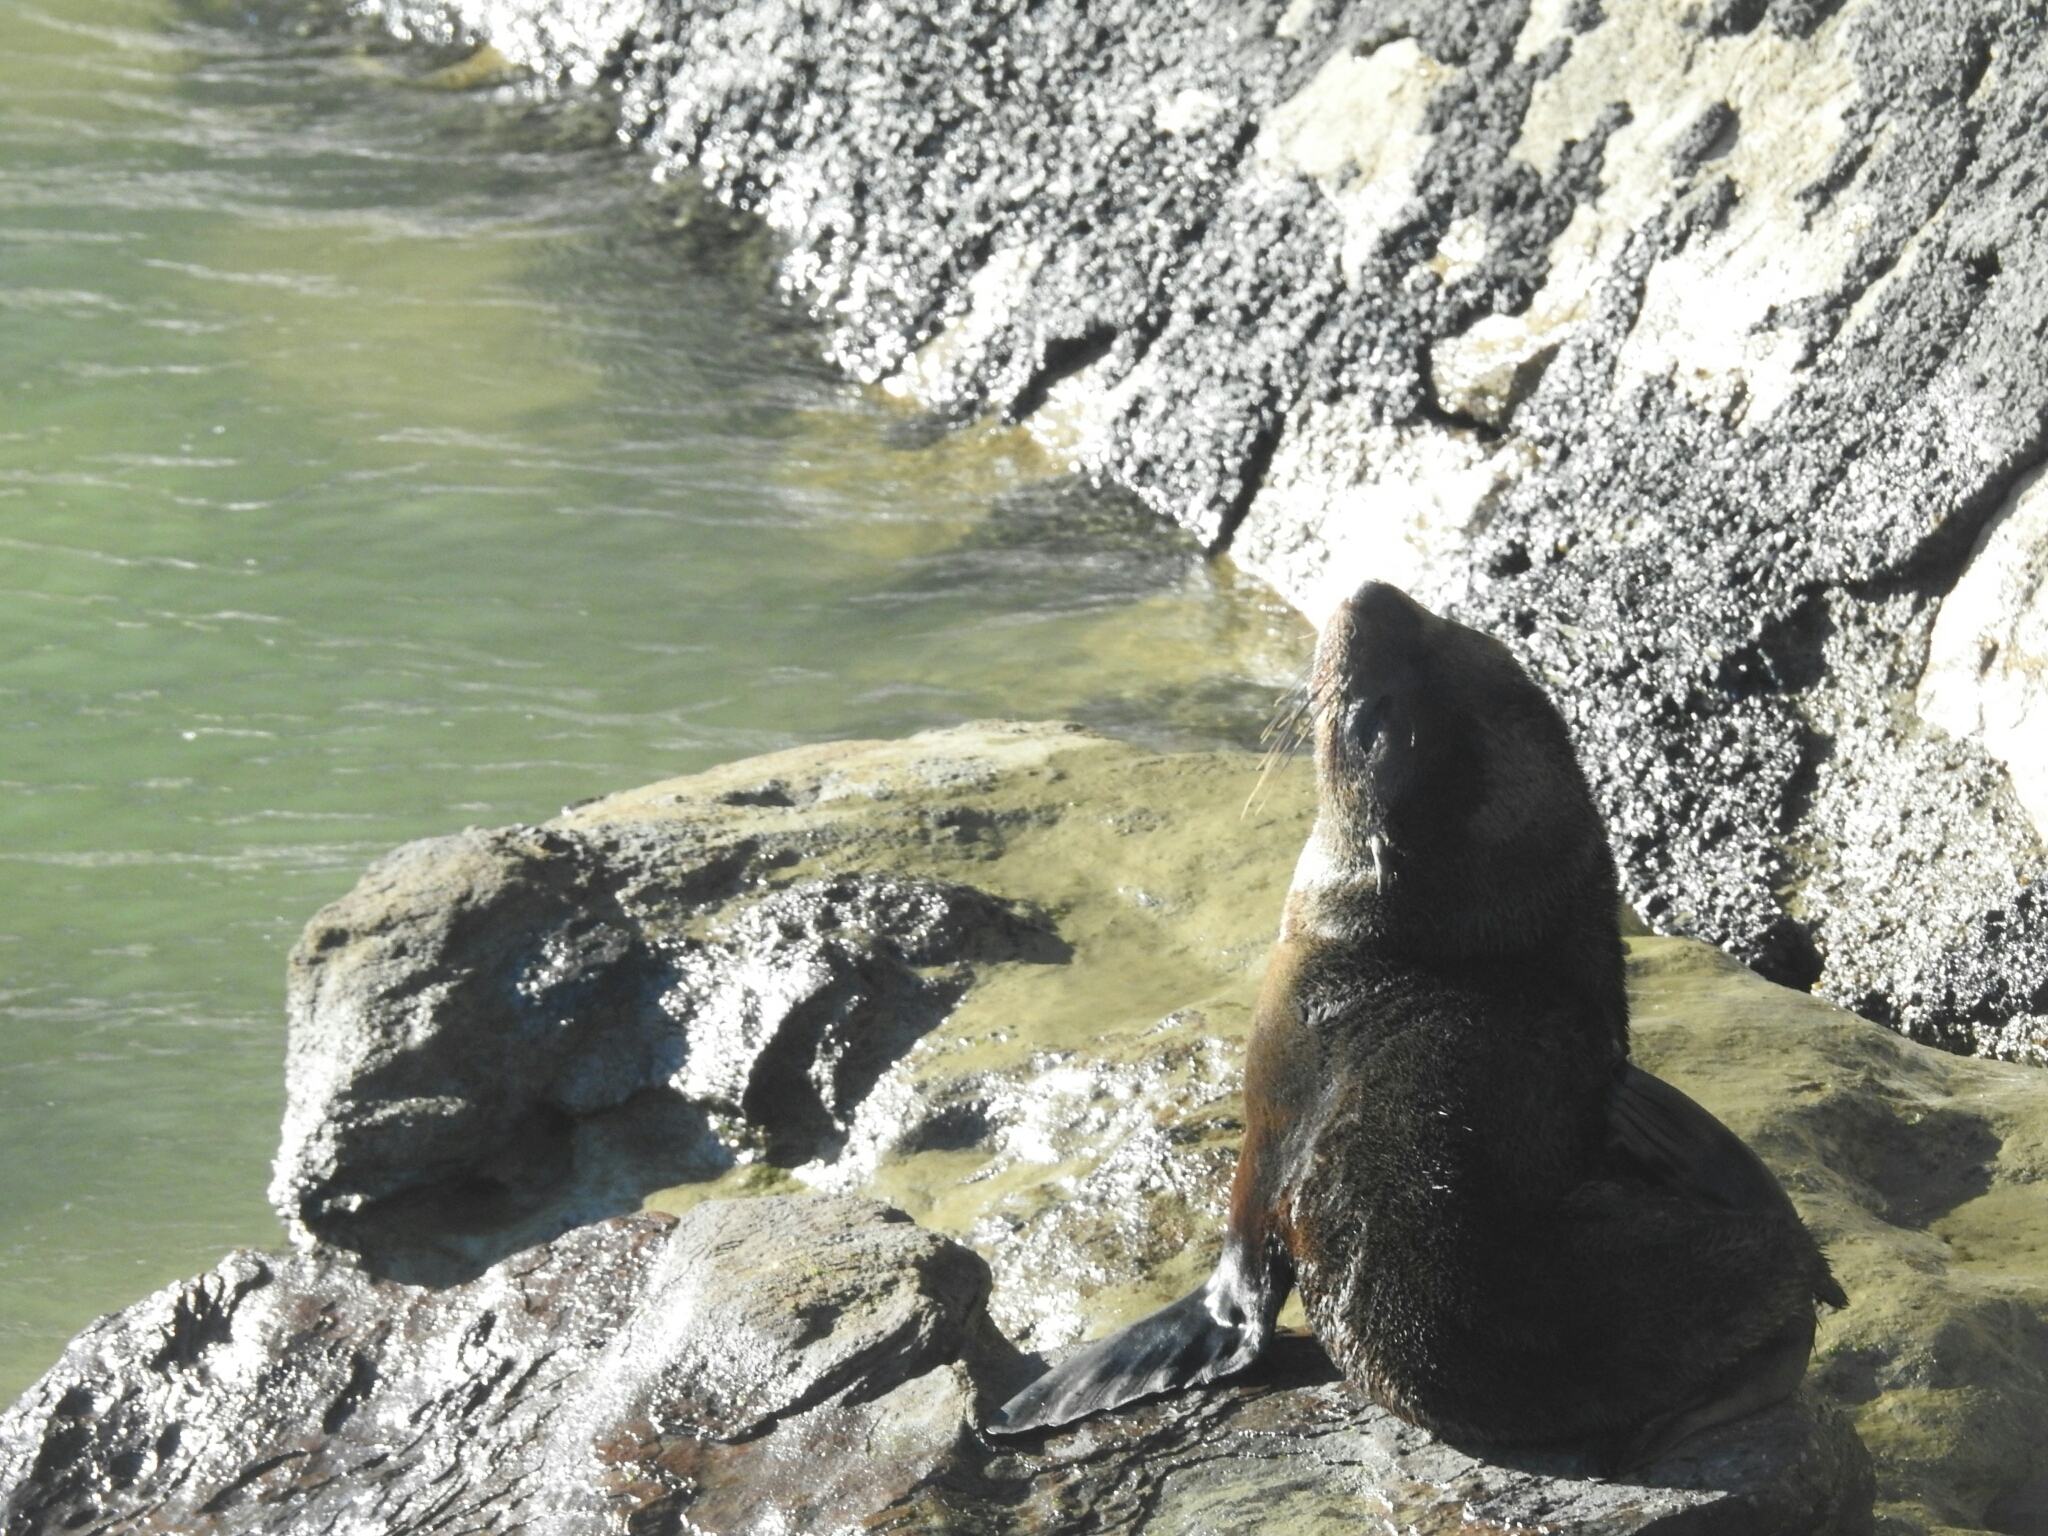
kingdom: Animalia
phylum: Chordata
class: Mammalia
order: Carnivora
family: Otariidae
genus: Arctocephalus
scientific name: Arctocephalus forsteri
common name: New zealand fur seal
